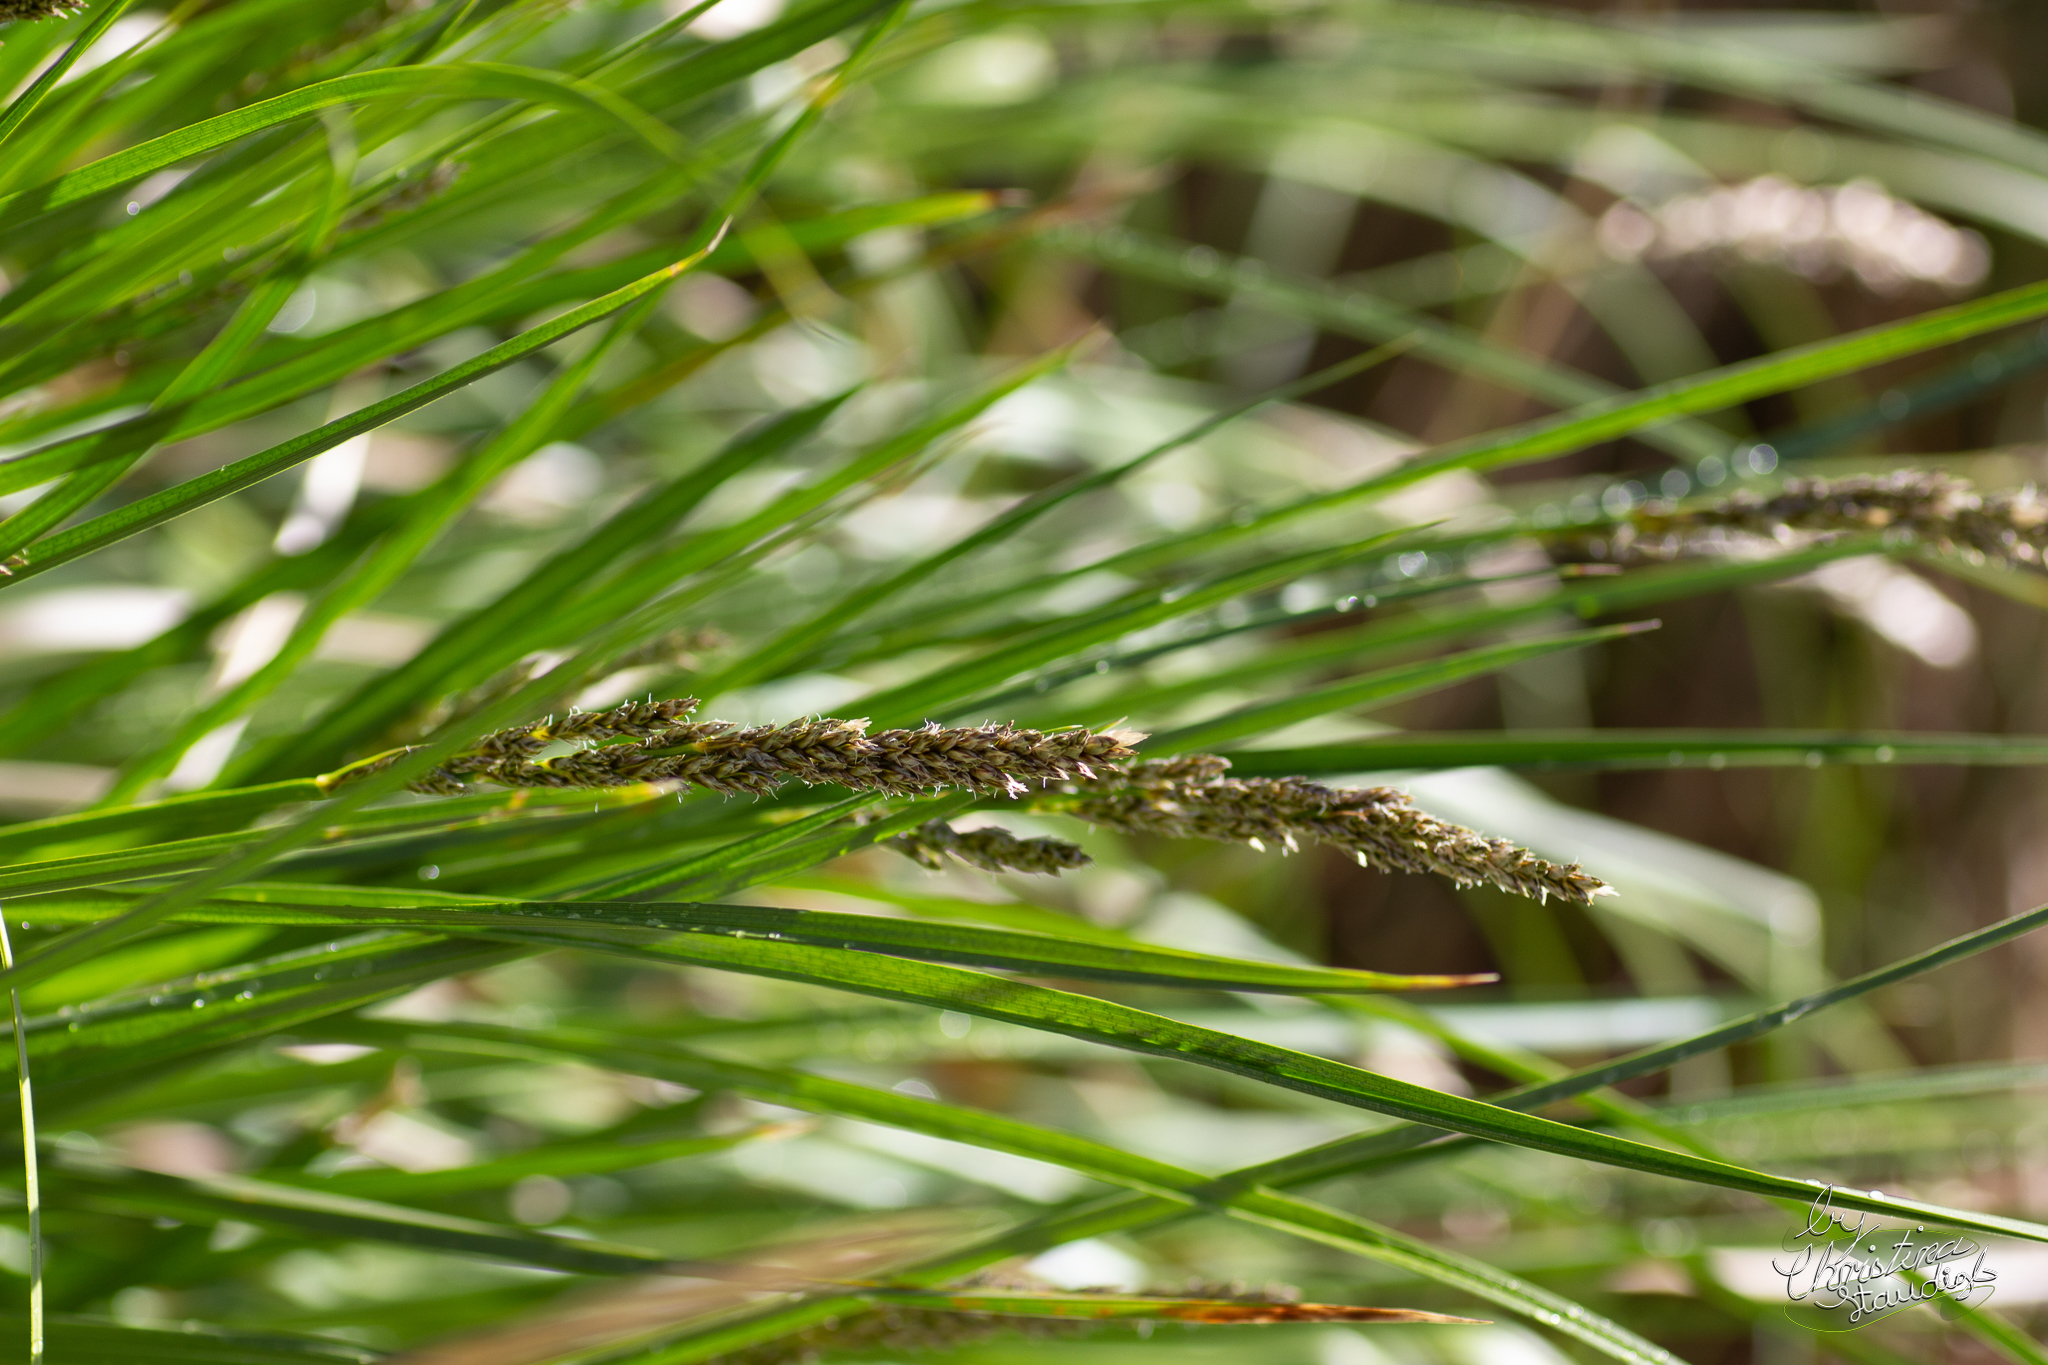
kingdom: Plantae
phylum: Tracheophyta
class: Liliopsida
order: Poales
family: Cyperaceae
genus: Carex
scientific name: Carex paniculata
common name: Greater tussock-sedge
